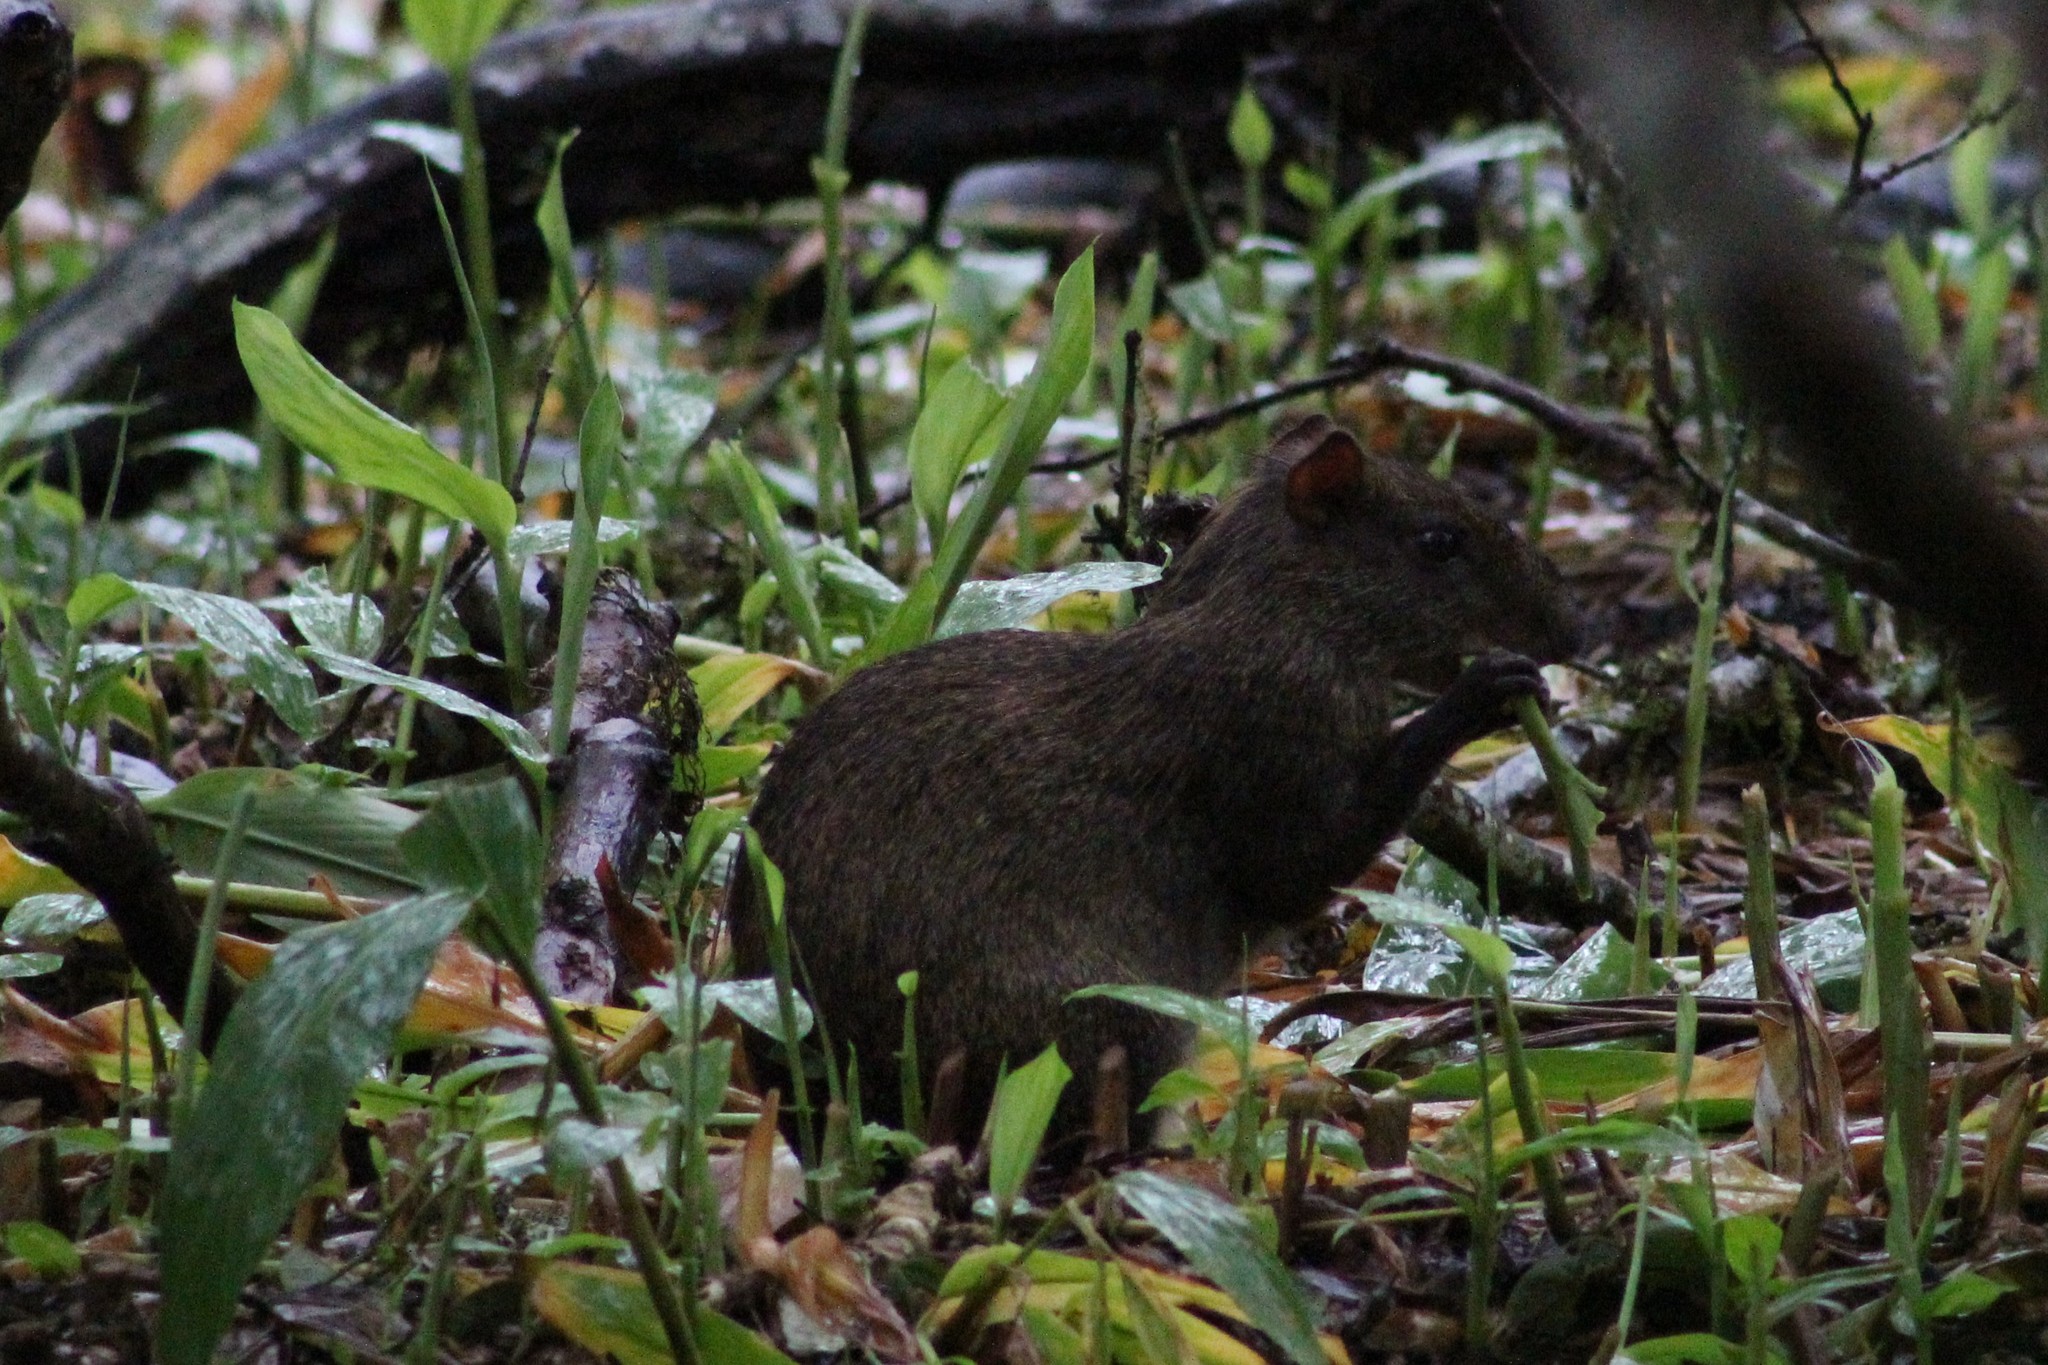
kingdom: Animalia
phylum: Chordata
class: Mammalia
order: Rodentia
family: Dasyproctidae
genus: Dasyprocta
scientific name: Dasyprocta punctata
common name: Central american agouti
